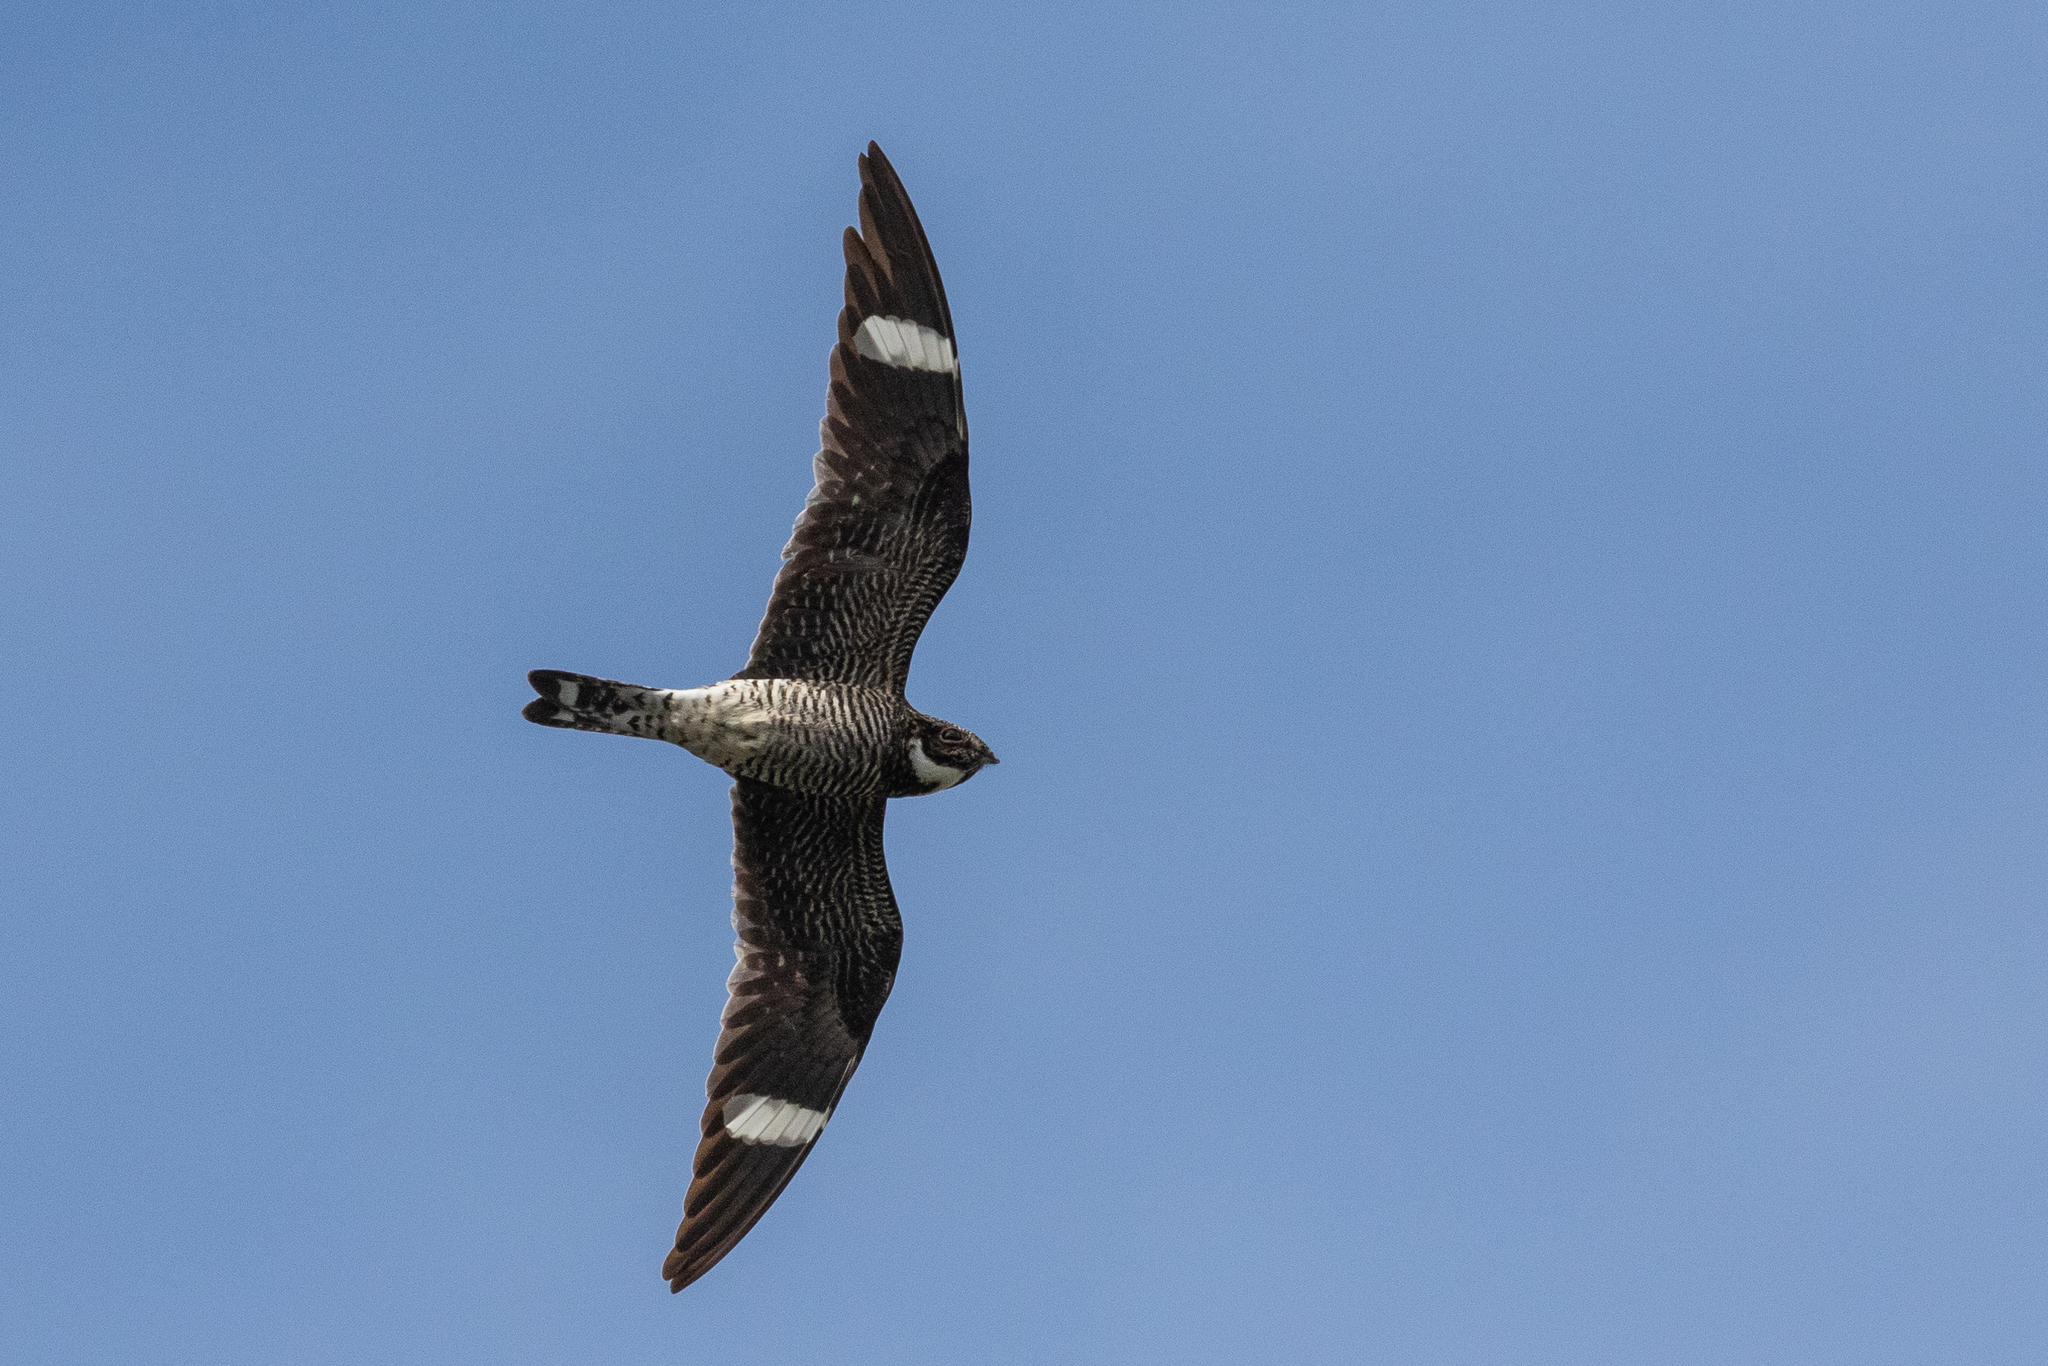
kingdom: Animalia
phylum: Chordata
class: Aves
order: Caprimulgiformes
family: Caprimulgidae
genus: Chordeiles
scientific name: Chordeiles minor
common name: Common nighthawk
